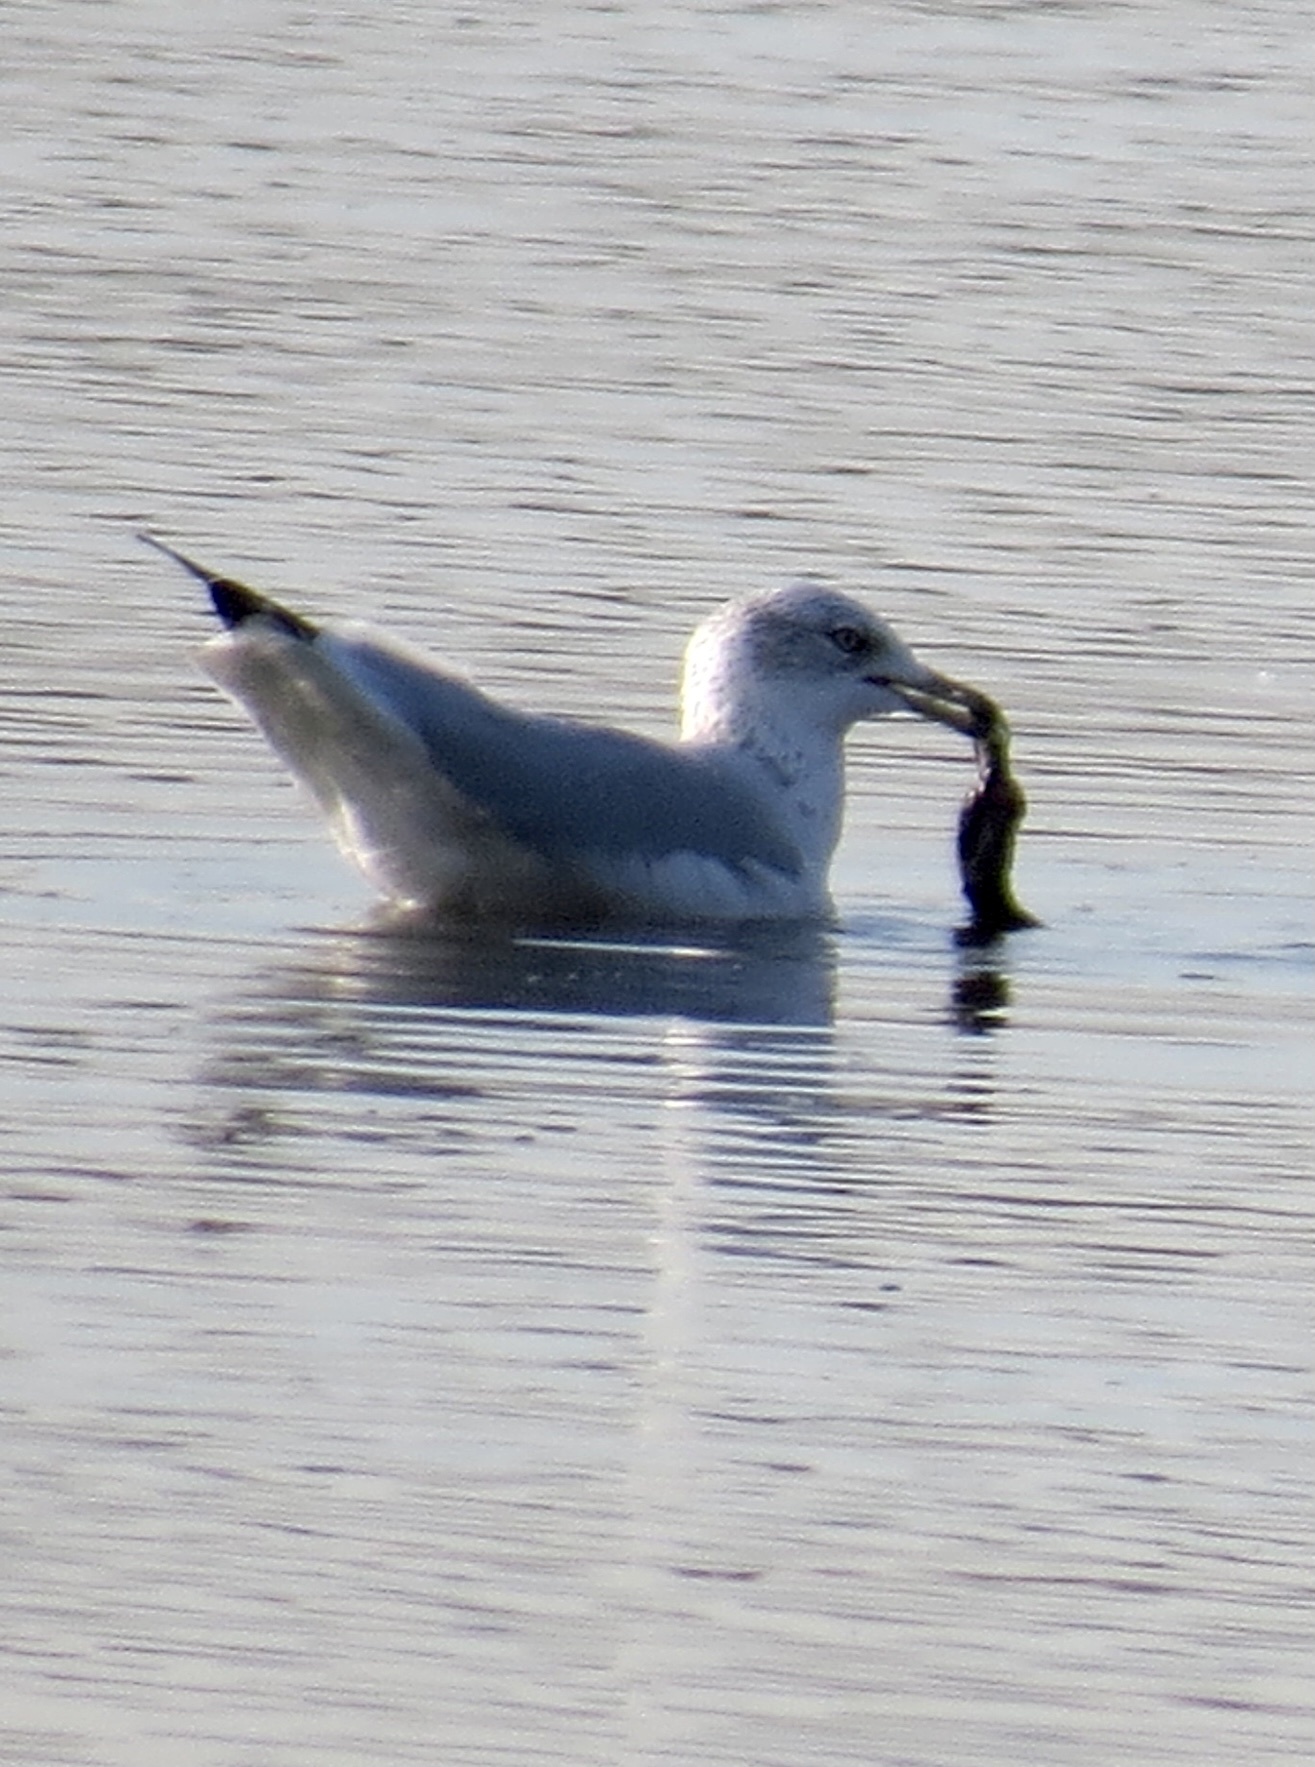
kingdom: Animalia
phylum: Chordata
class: Aves
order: Charadriiformes
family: Laridae
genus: Larus
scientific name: Larus delawarensis
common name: Ring-billed gull
